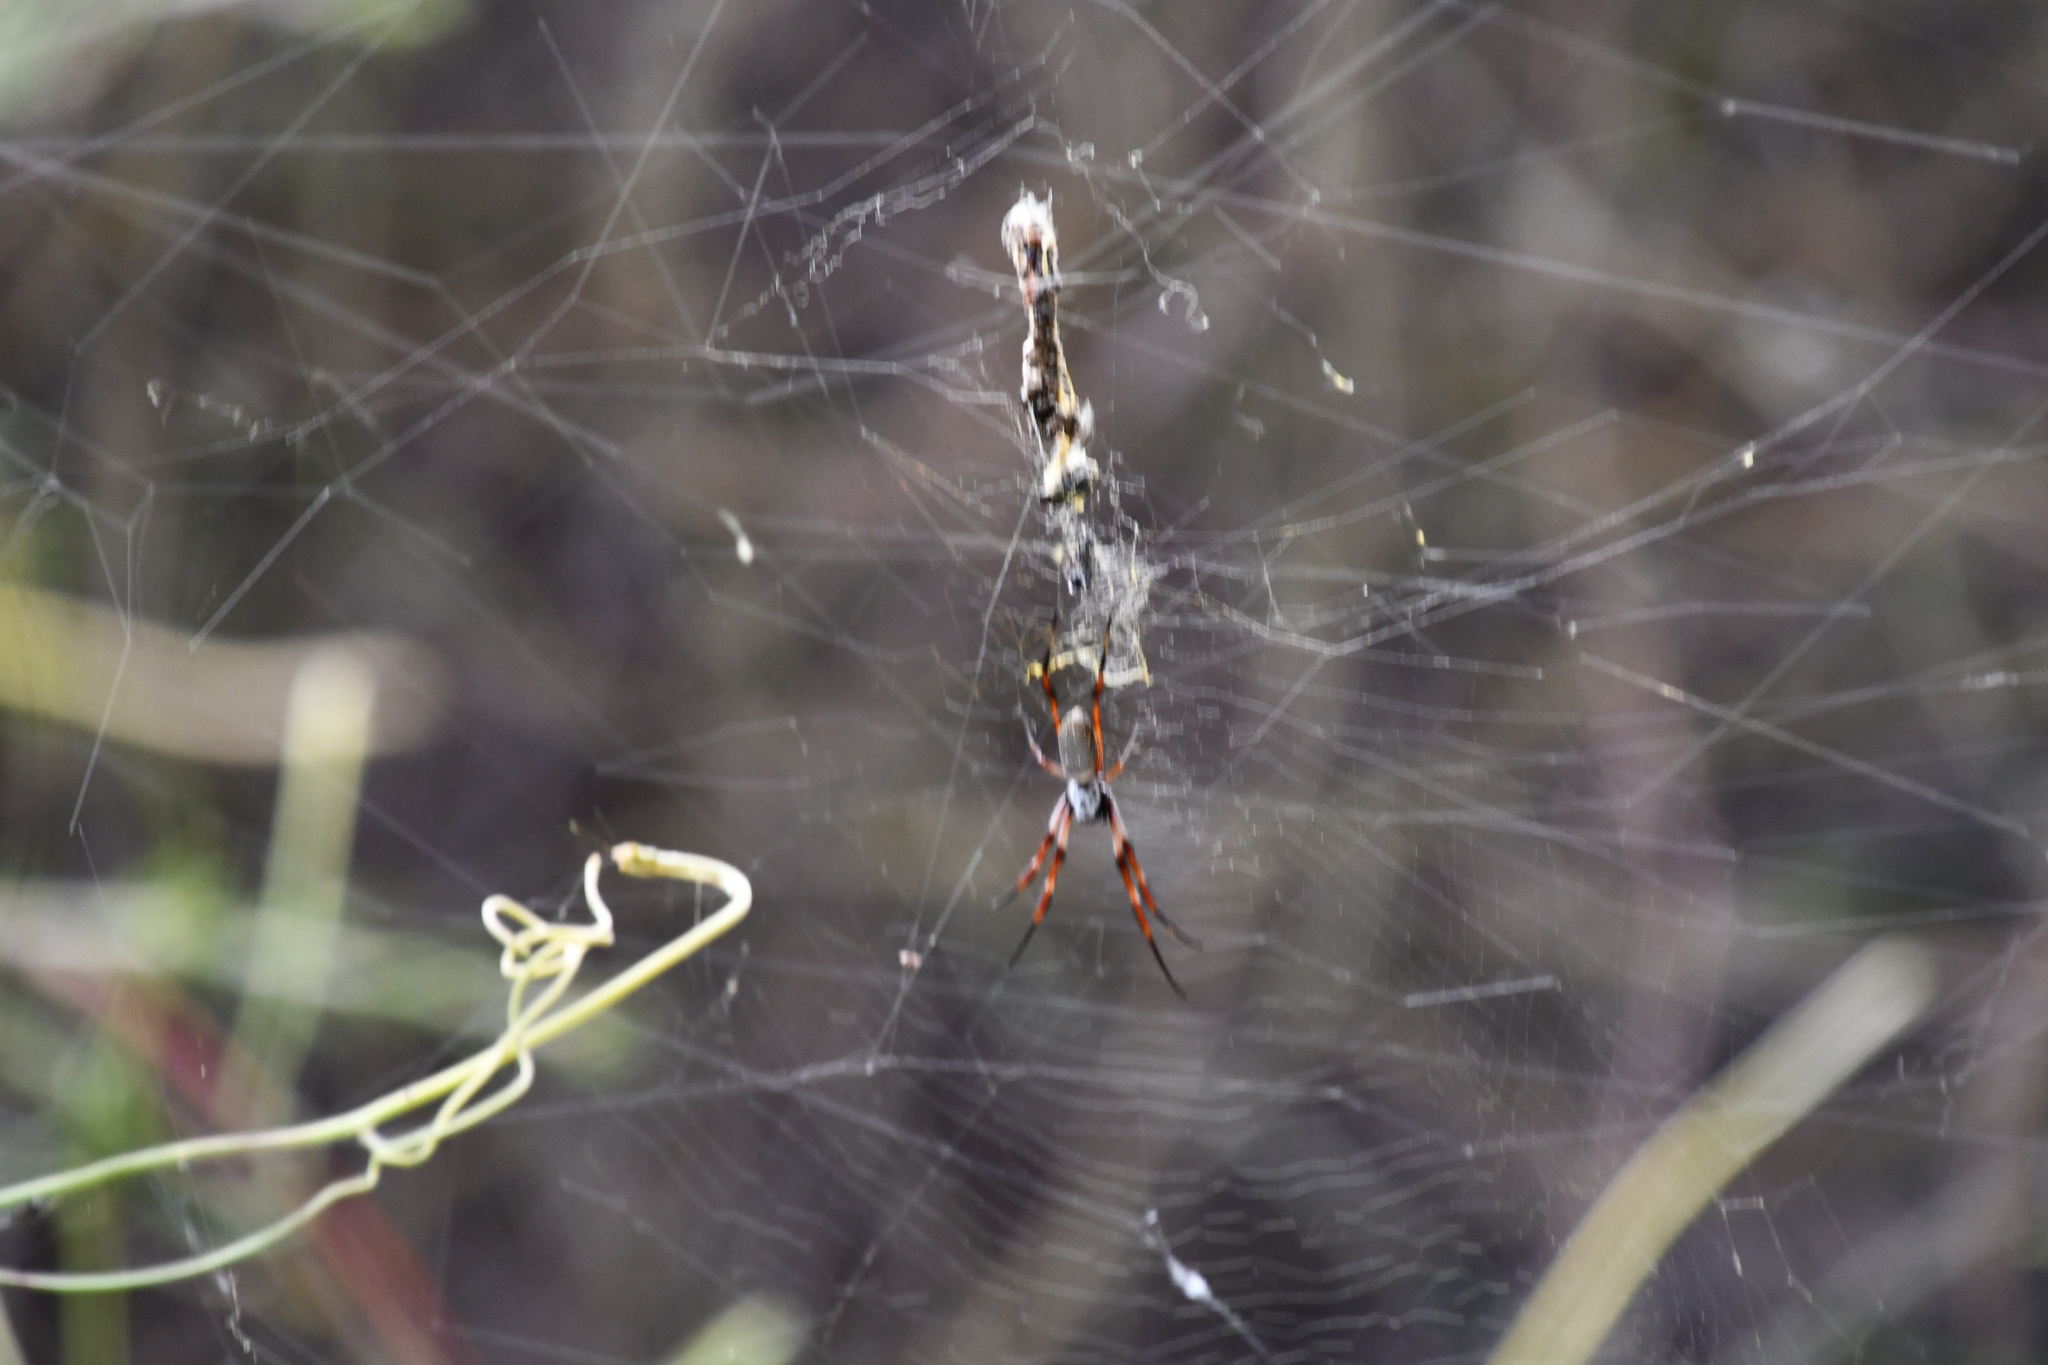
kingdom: Animalia
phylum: Arthropoda
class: Arachnida
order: Araneae
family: Araneidae
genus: Trichonephila
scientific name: Trichonephila edulis
